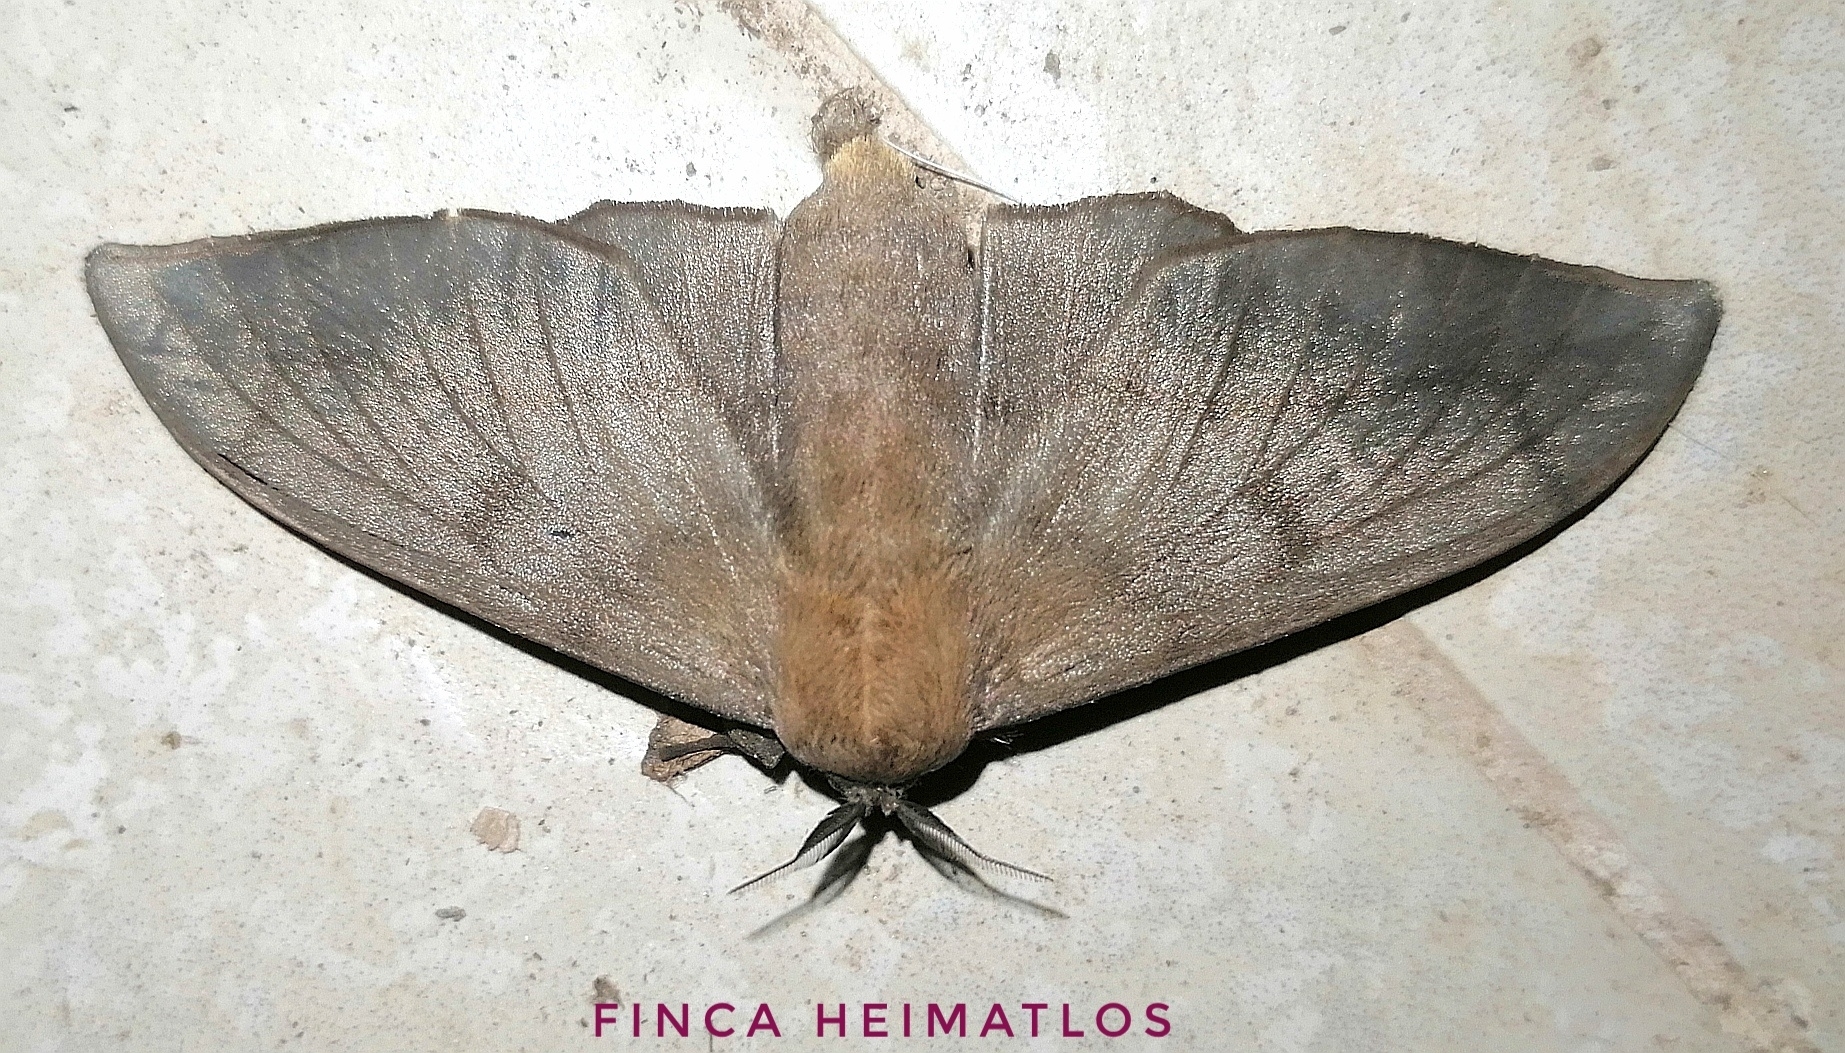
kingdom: Animalia
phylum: Arthropoda
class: Insecta
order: Lepidoptera
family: Mimallonidae
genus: Psychocampa
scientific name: Psychocampa concolor
